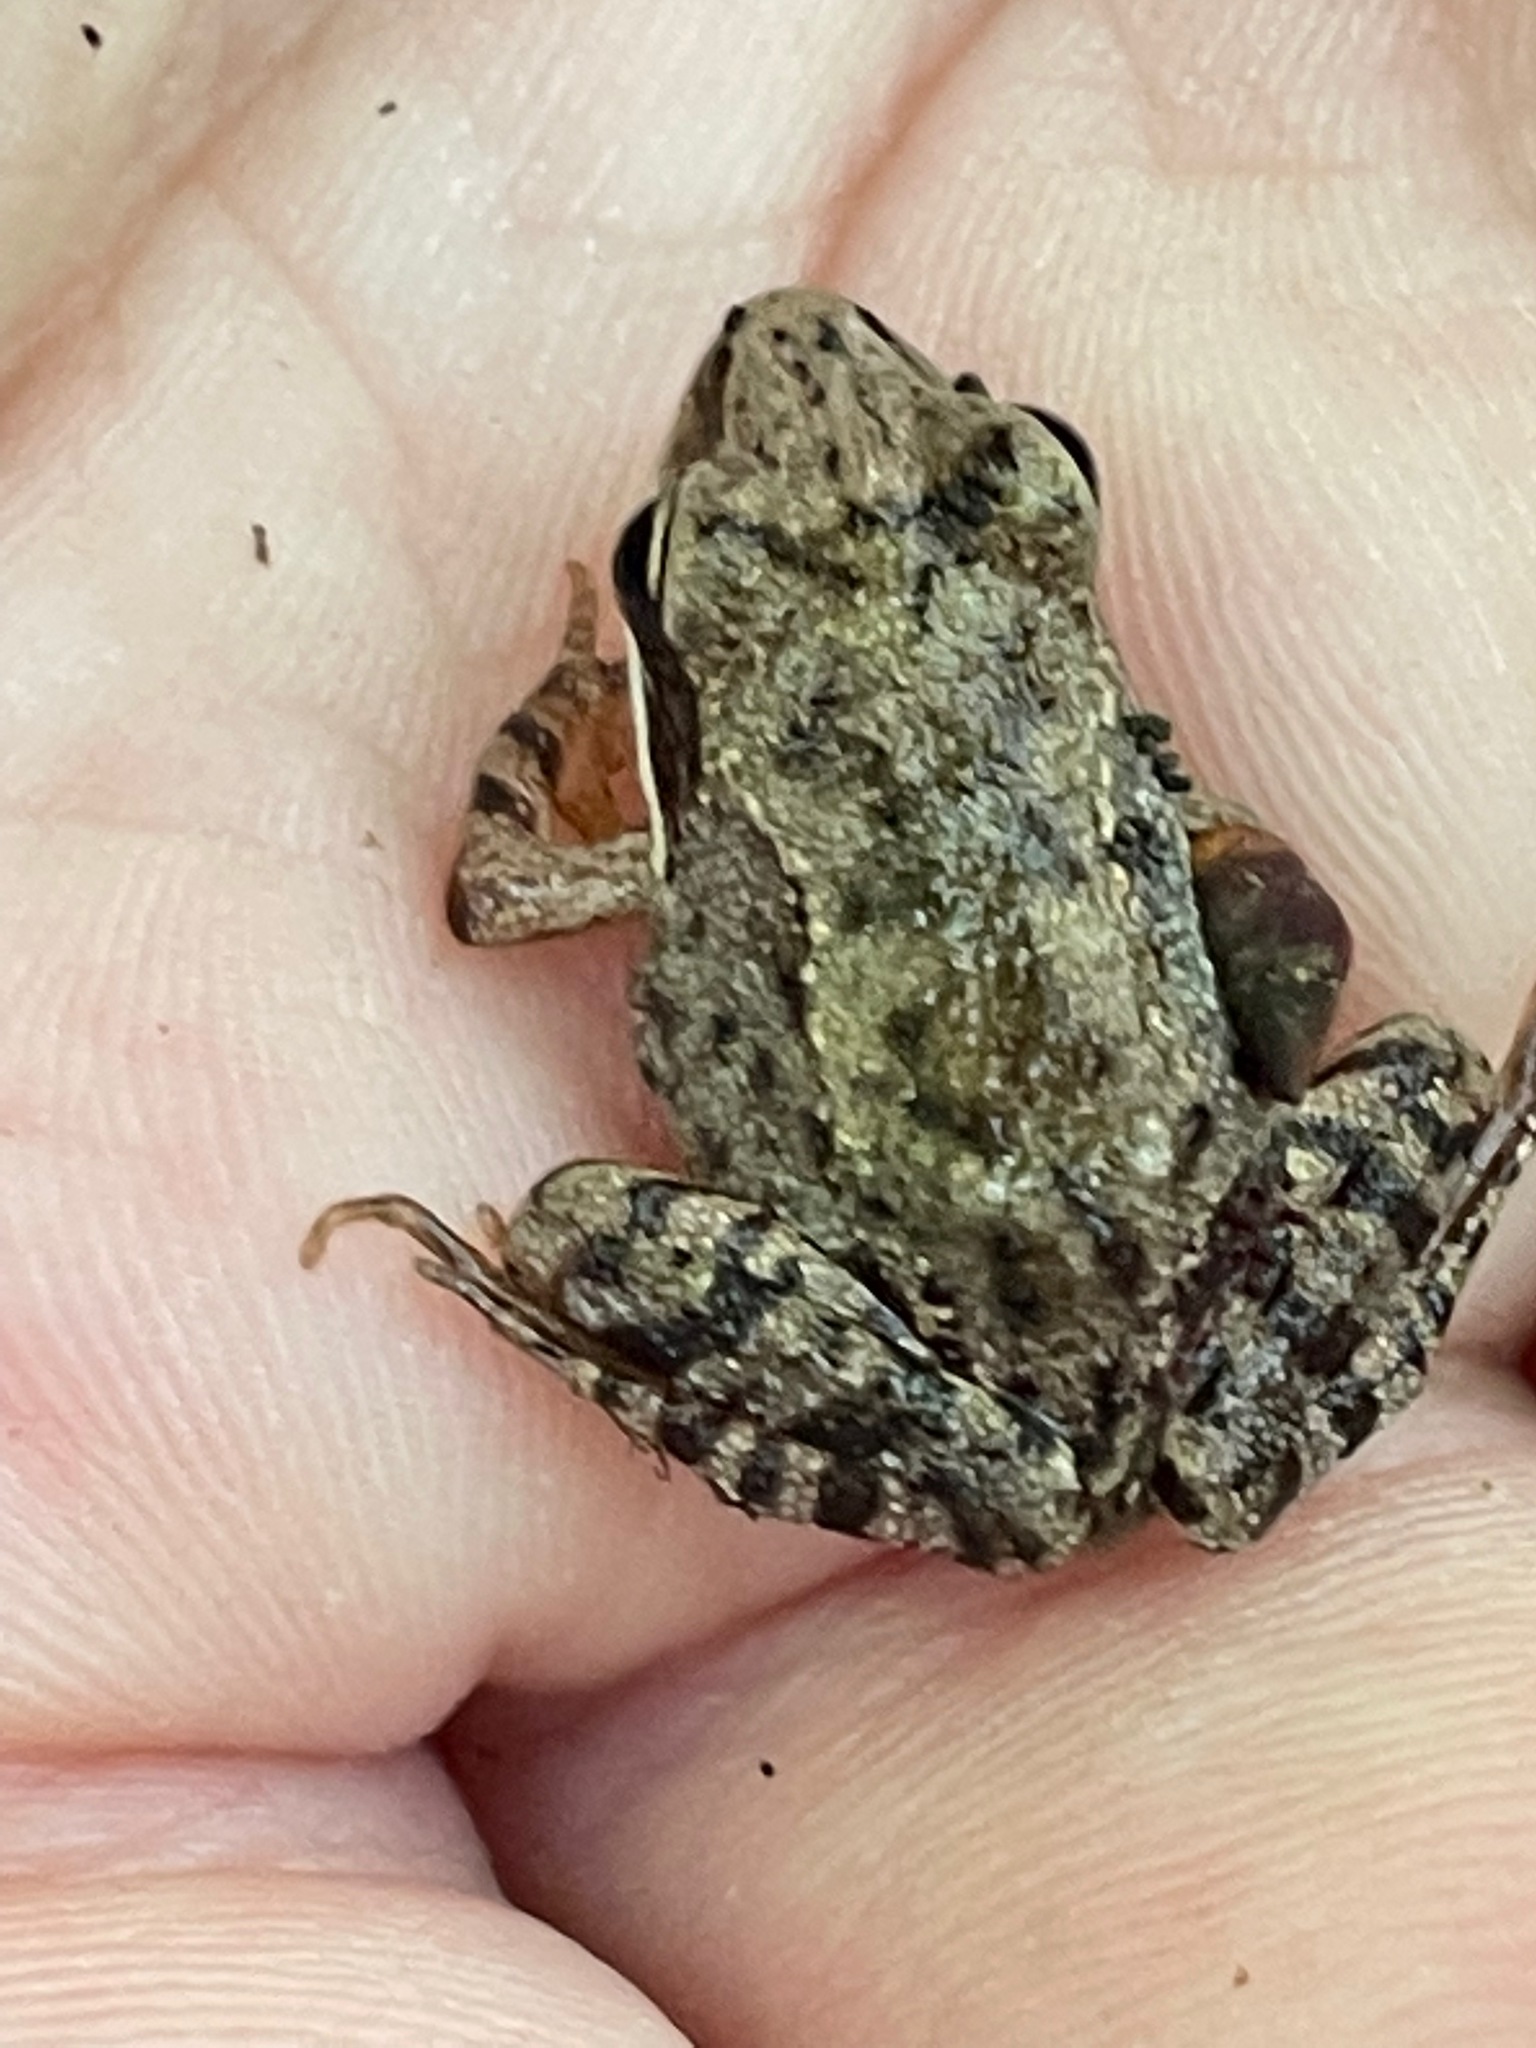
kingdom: Animalia
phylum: Chordata
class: Amphibia
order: Anura
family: Ranidae
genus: Lithobates
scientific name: Lithobates sylvaticus
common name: Wood frog
